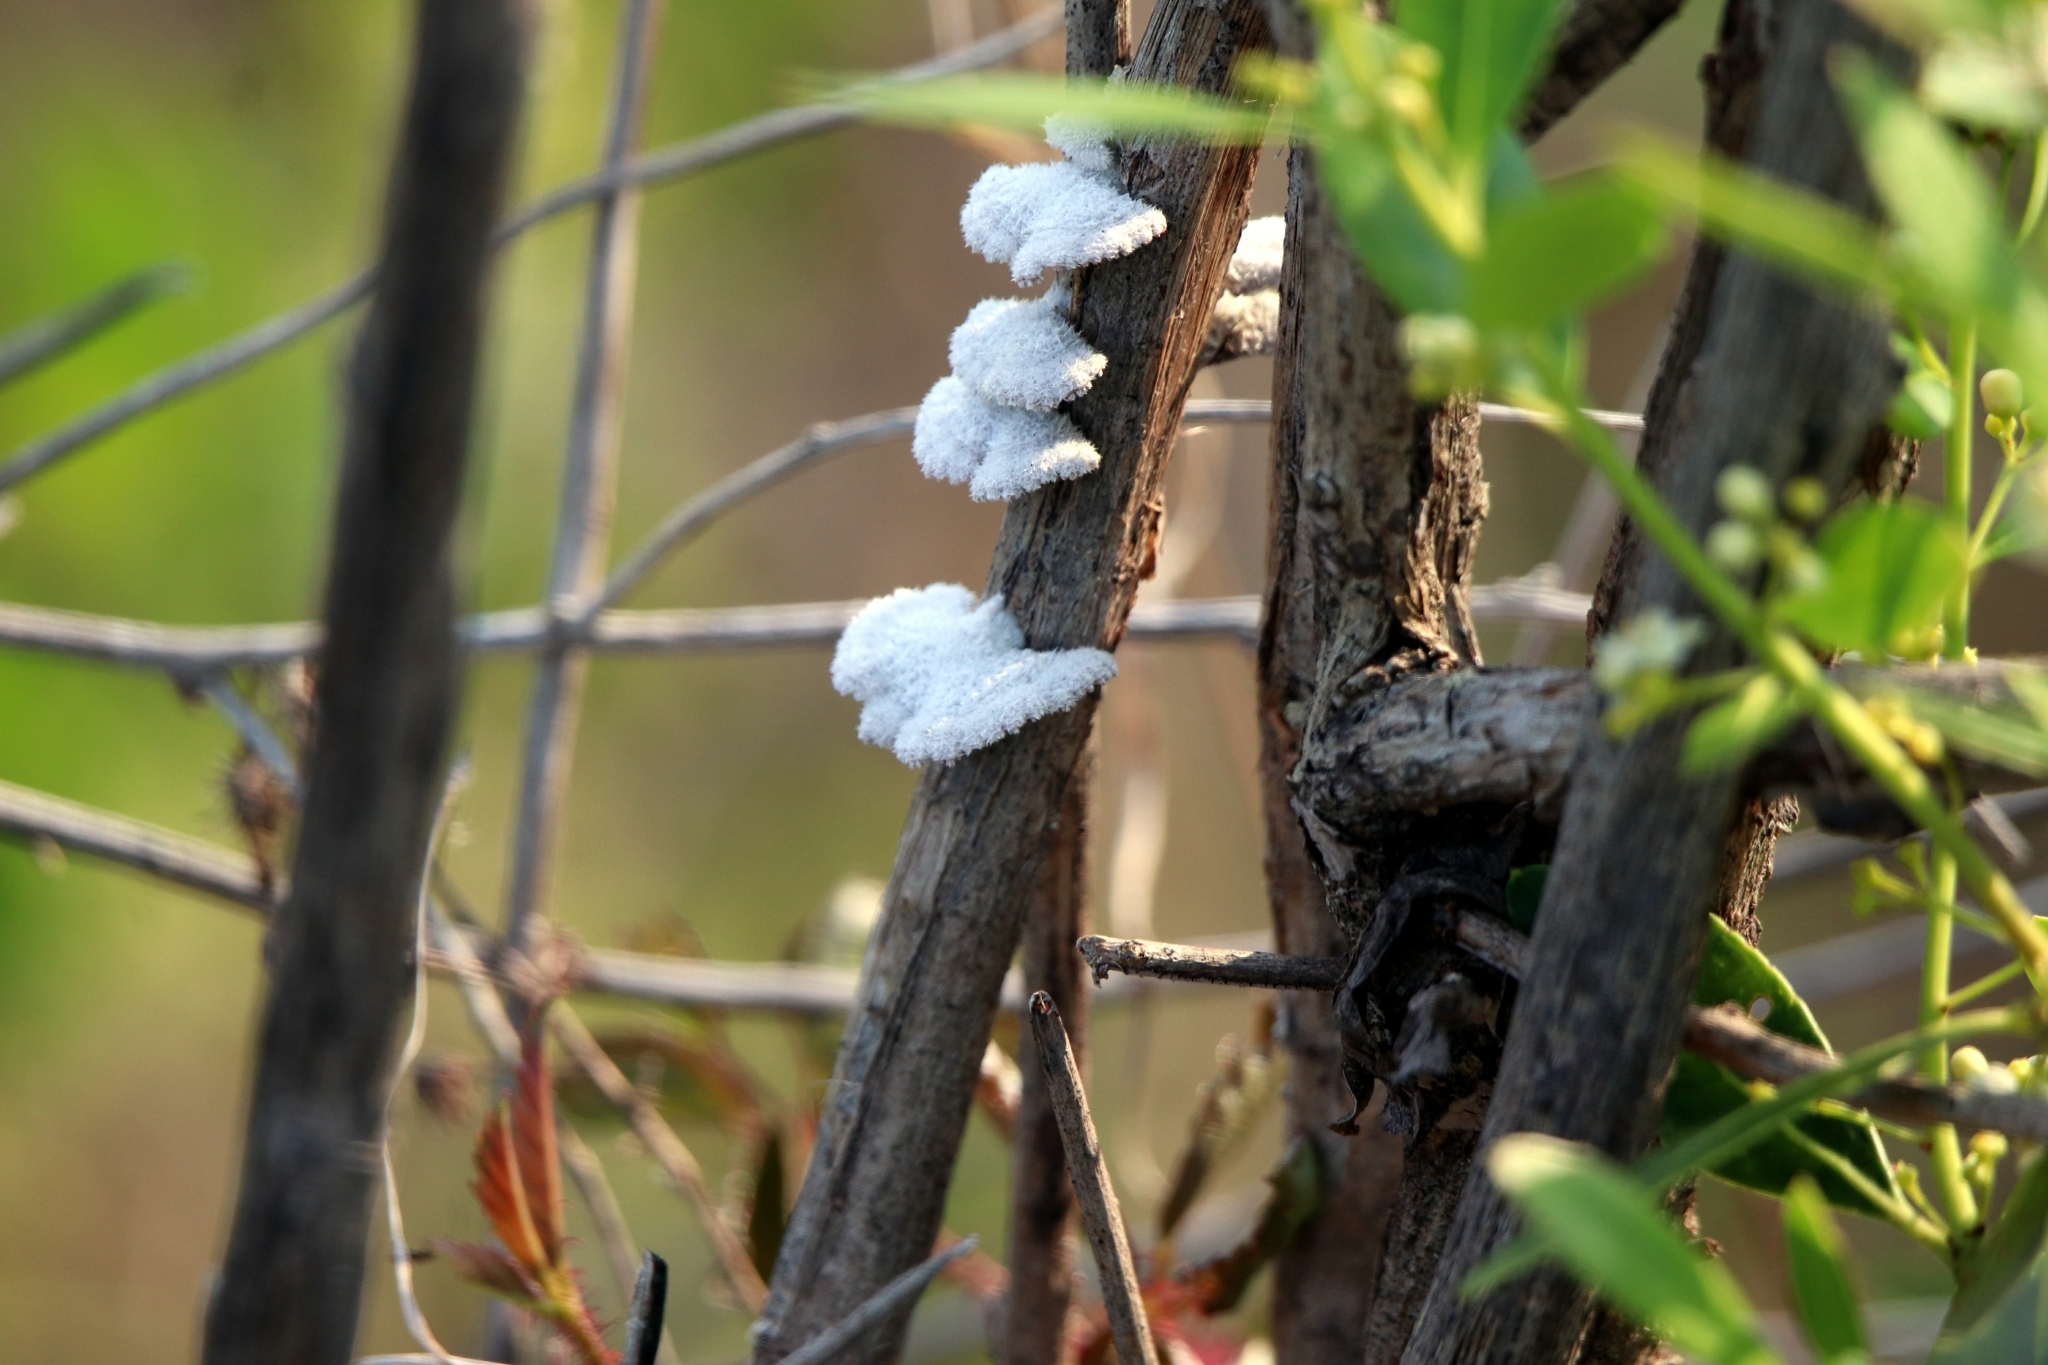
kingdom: Fungi
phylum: Basidiomycota
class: Agaricomycetes
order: Agaricales
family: Schizophyllaceae
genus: Schizophyllum
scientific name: Schizophyllum commune
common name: Common porecrust
